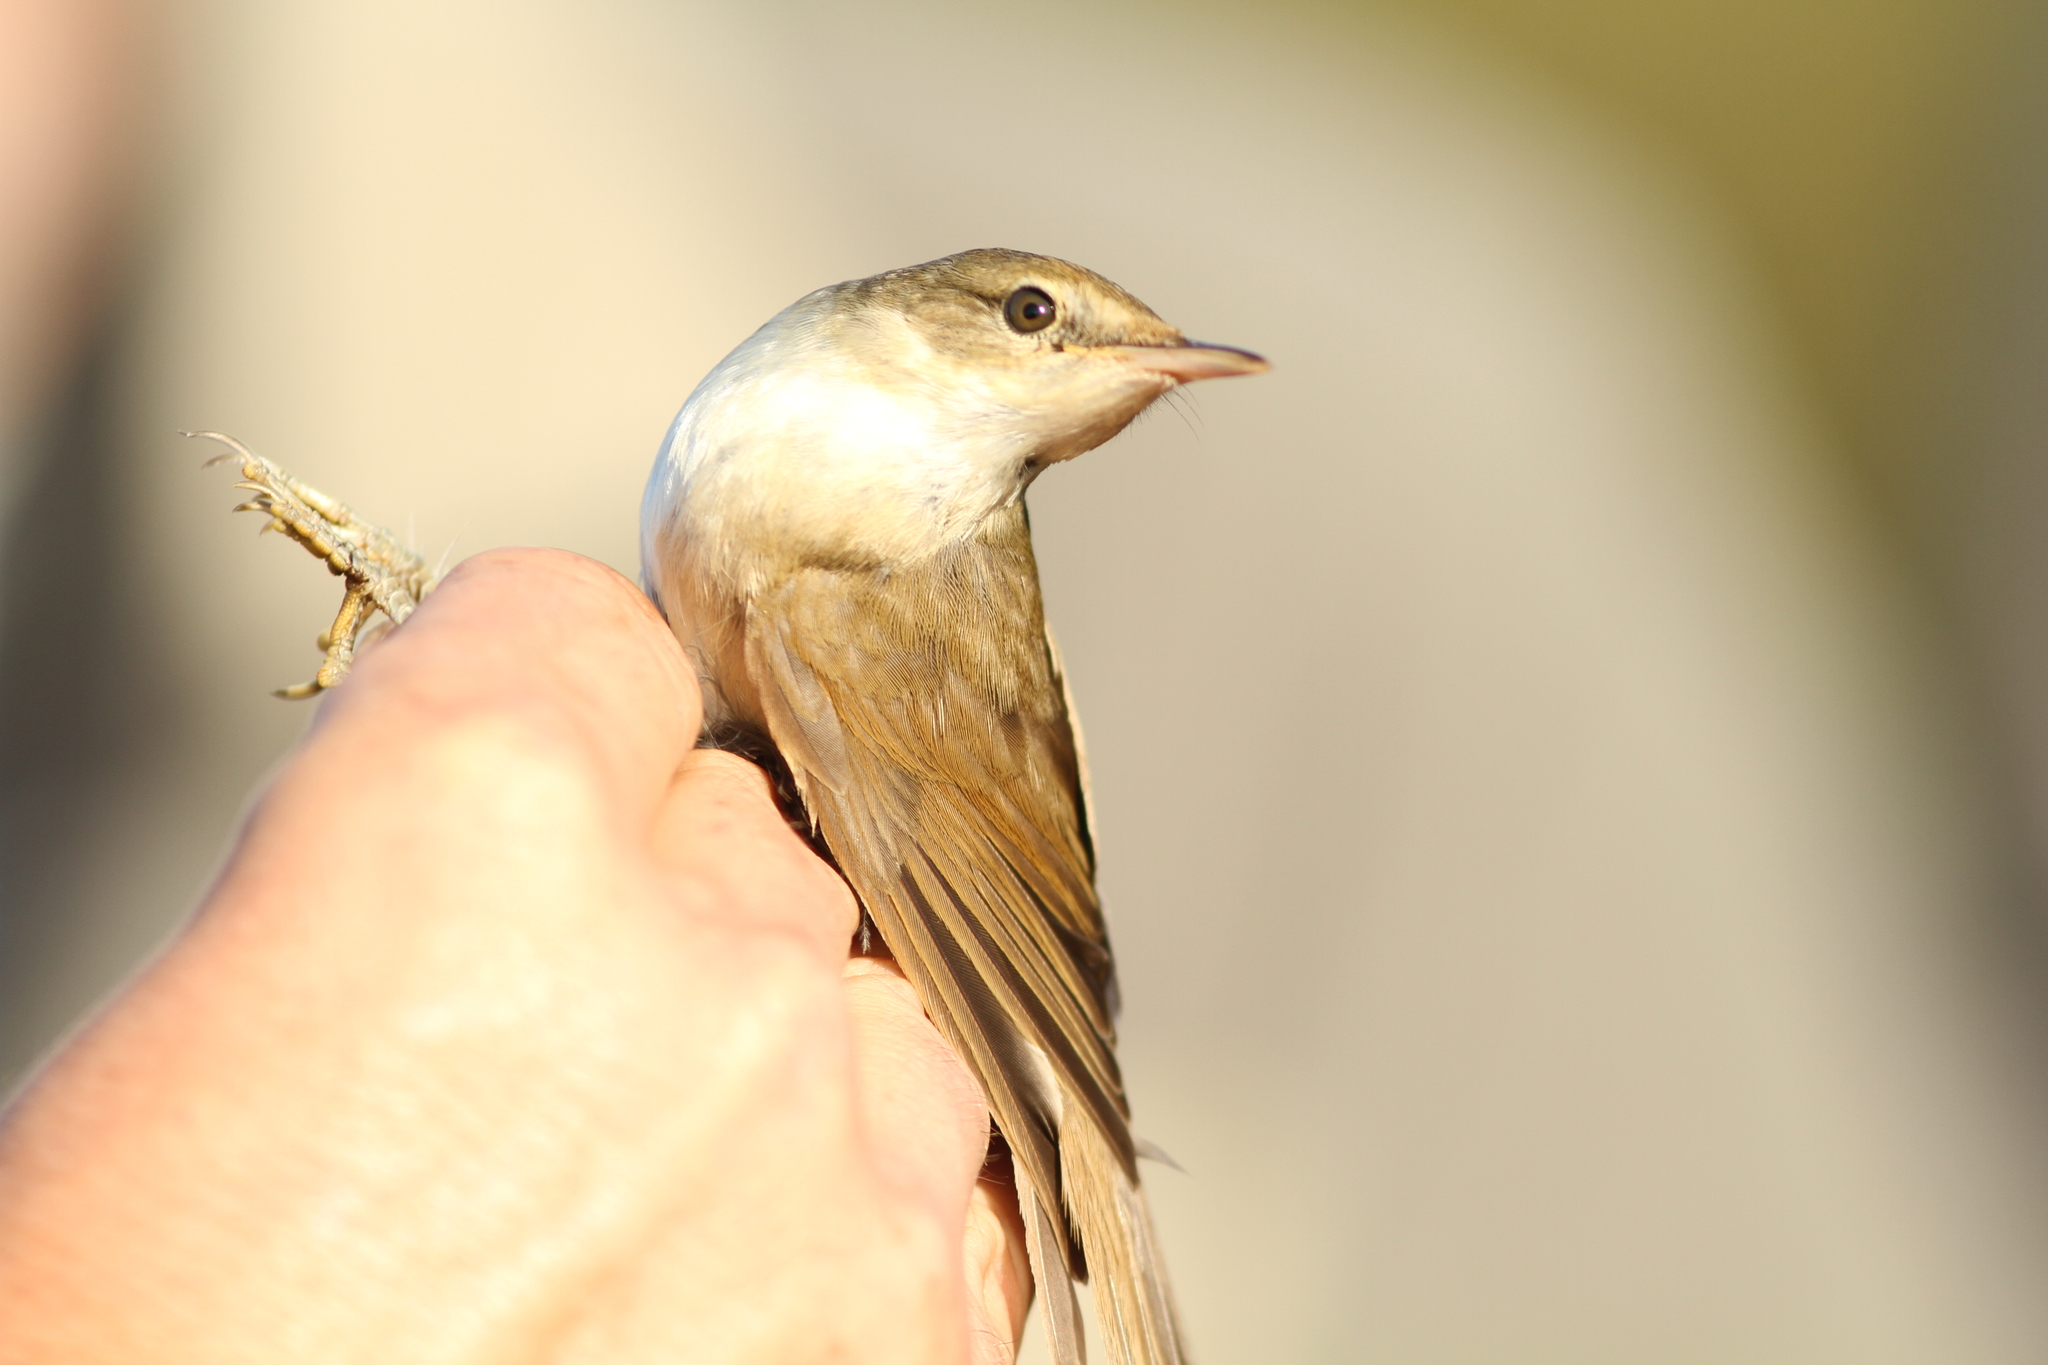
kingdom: Animalia
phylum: Chordata
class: Aves
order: Passeriformes
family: Acrocephalidae
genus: Acrocephalus
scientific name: Acrocephalus dumetorum
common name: Blyth's reed warbler
